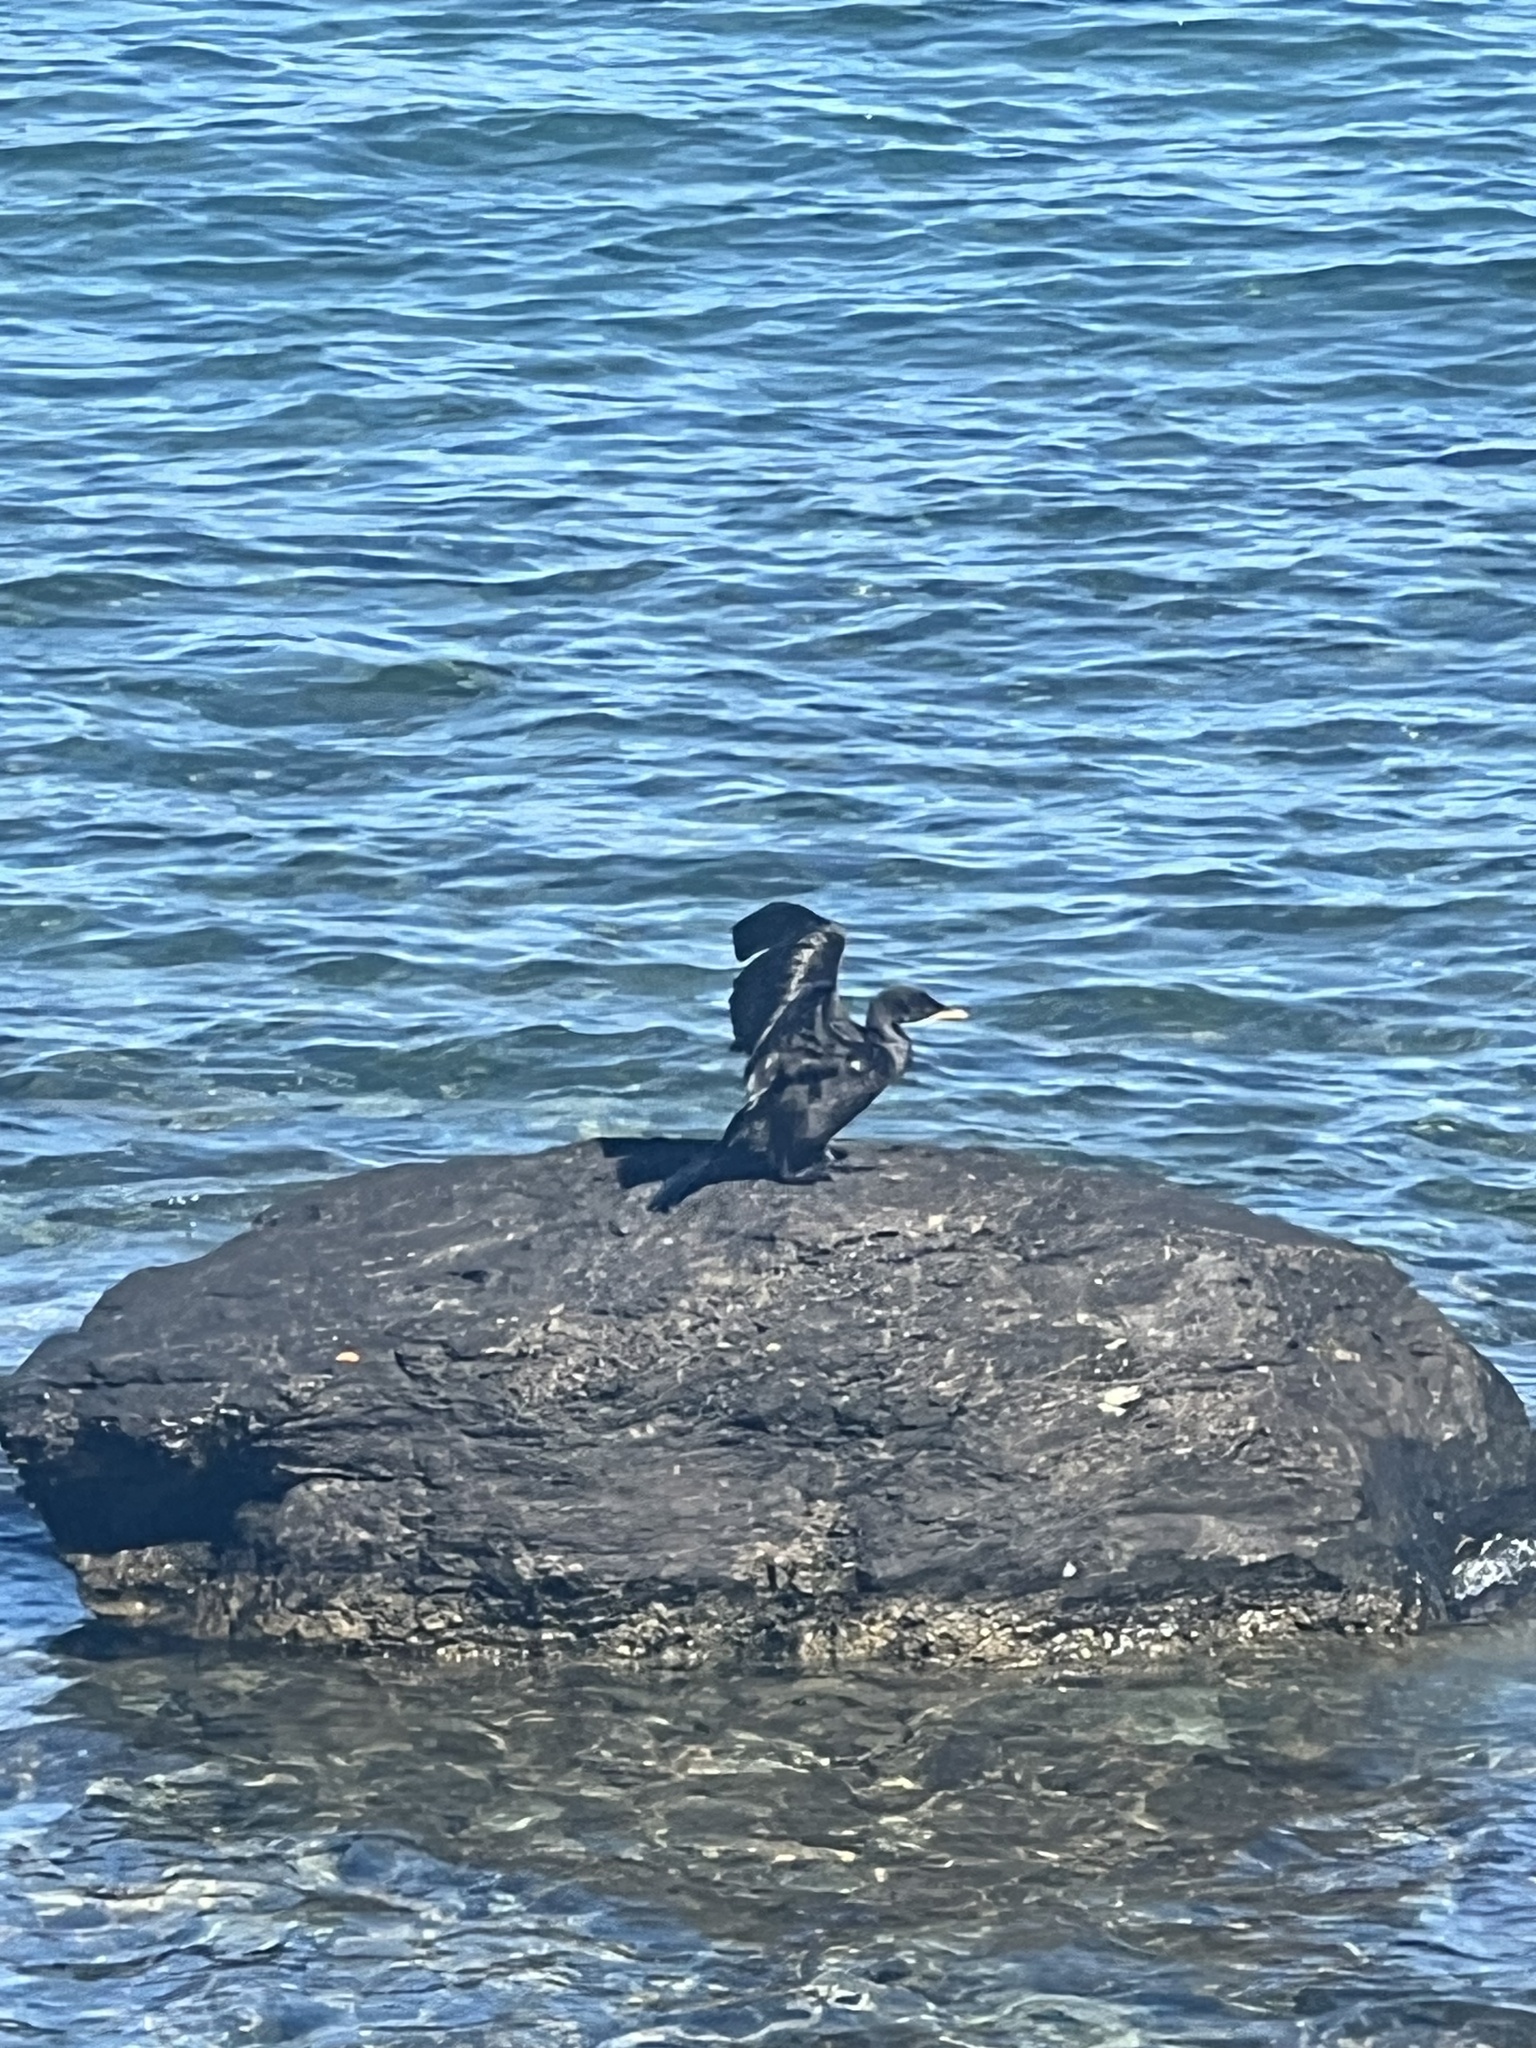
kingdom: Animalia
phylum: Chordata
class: Aves
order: Suliformes
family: Phalacrocoracidae
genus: Microcarbo
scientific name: Microcarbo melanoleucos
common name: Little pied cormorant
